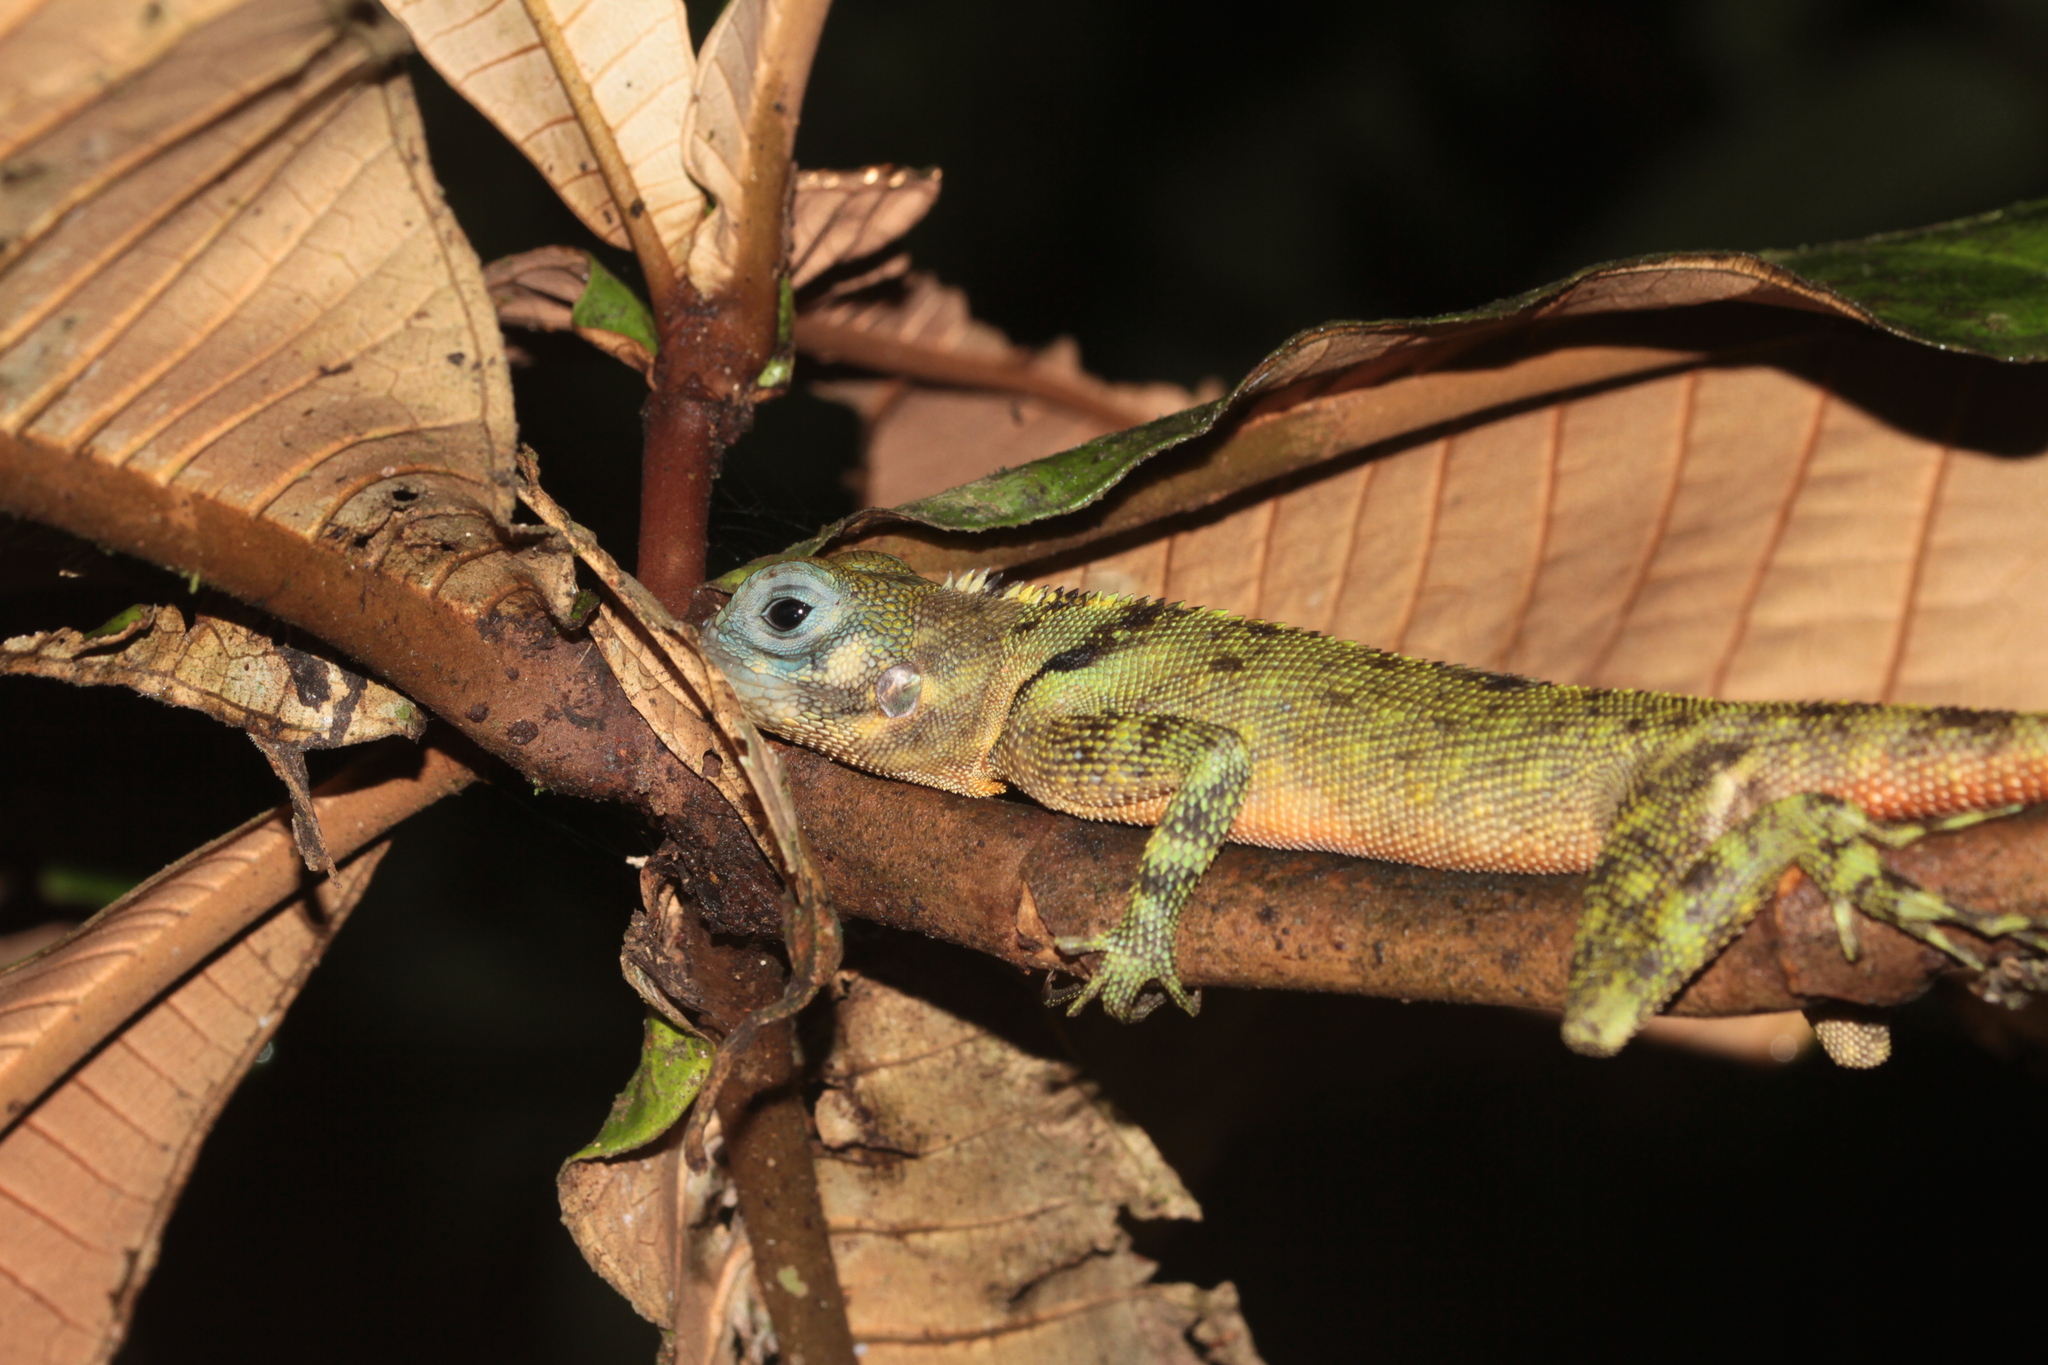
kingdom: Animalia
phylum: Chordata
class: Squamata
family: Tropiduridae
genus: Plica
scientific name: Plica umbra
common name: Harlequin racerunner
